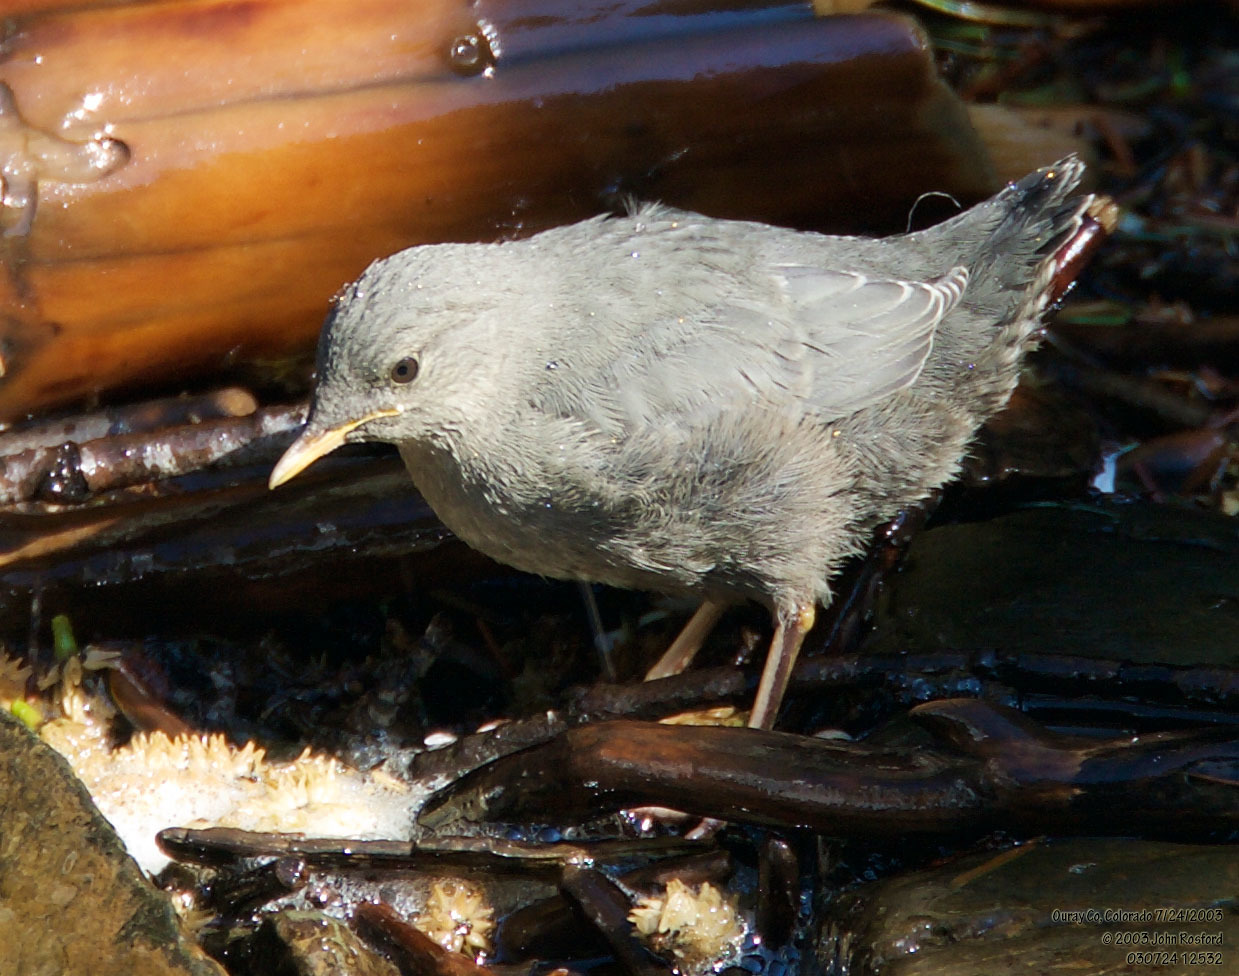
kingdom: Animalia
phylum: Chordata
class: Aves
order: Passeriformes
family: Cinclidae
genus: Cinclus
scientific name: Cinclus mexicanus
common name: American dipper
